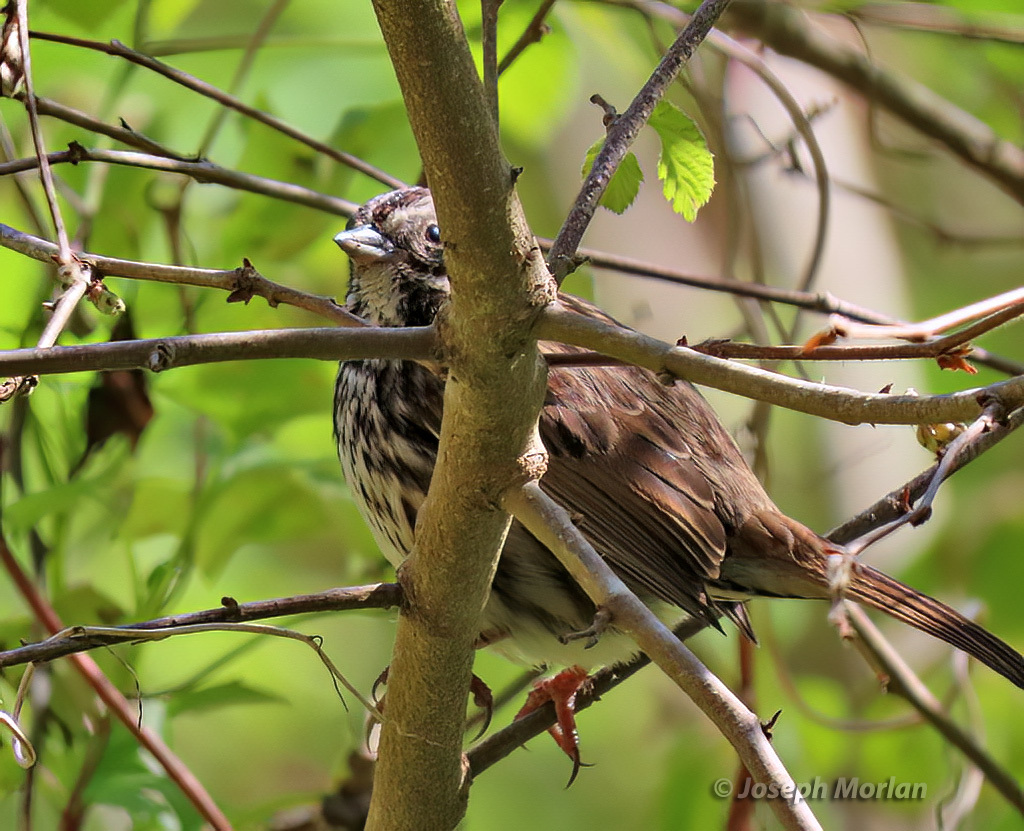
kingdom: Animalia
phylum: Chordata
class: Aves
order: Passeriformes
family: Passerellidae
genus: Melospiza
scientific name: Melospiza melodia
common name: Song sparrow
